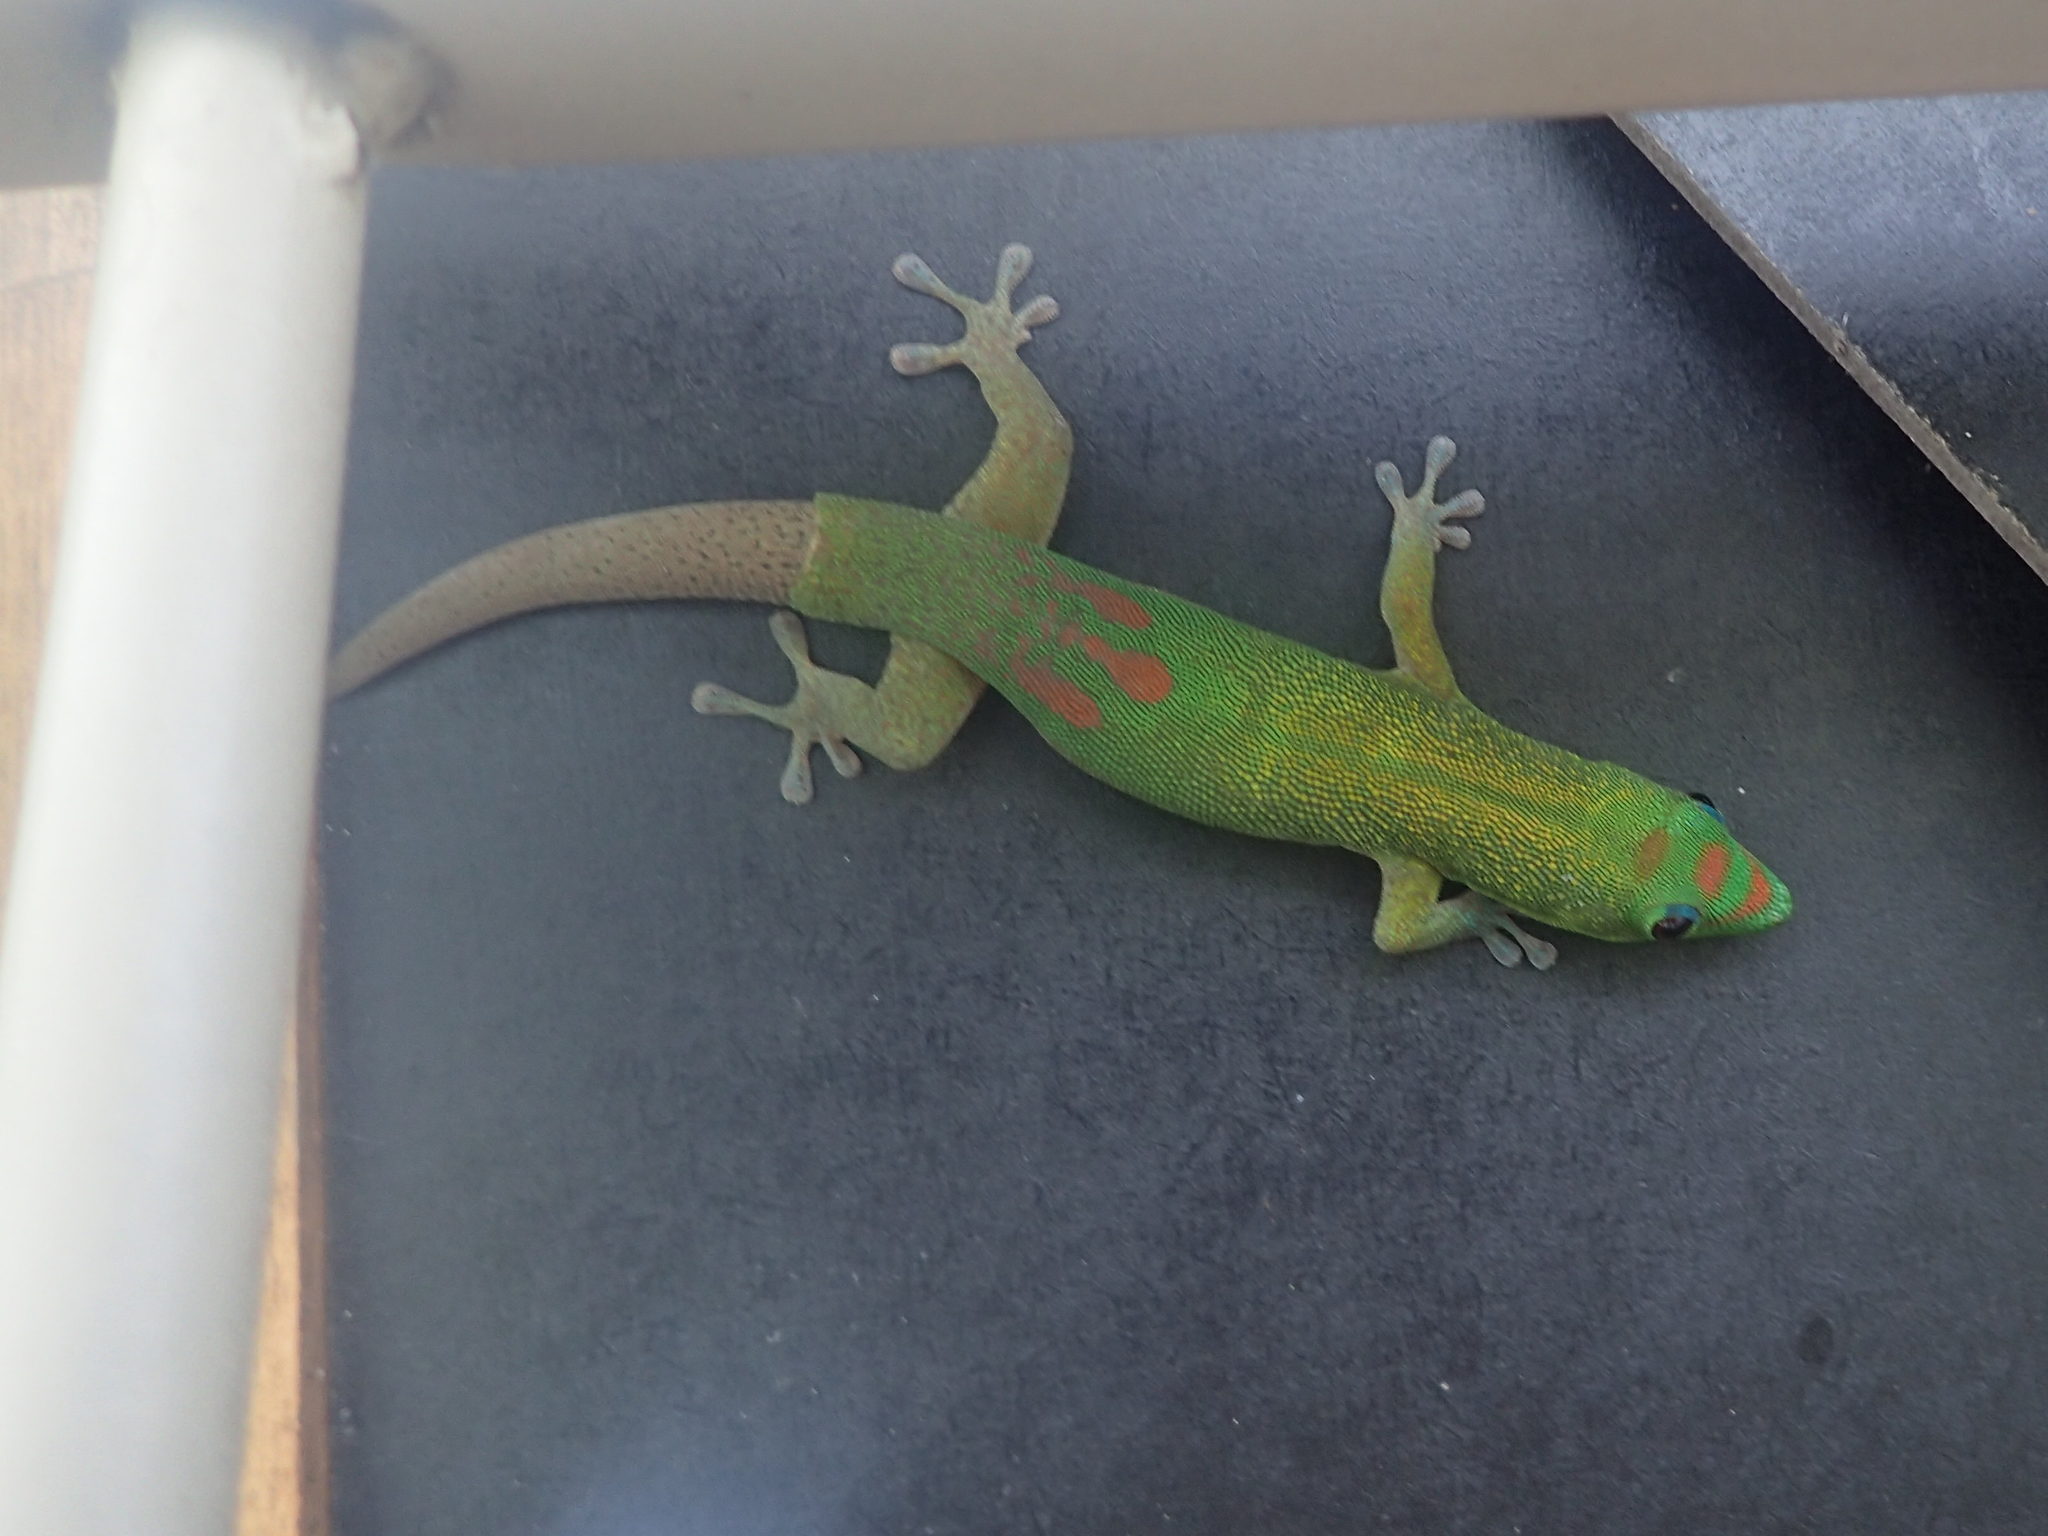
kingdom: Animalia
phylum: Chordata
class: Squamata
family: Gekkonidae
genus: Phelsuma
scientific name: Phelsuma laticauda
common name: Gold dust day gecko
